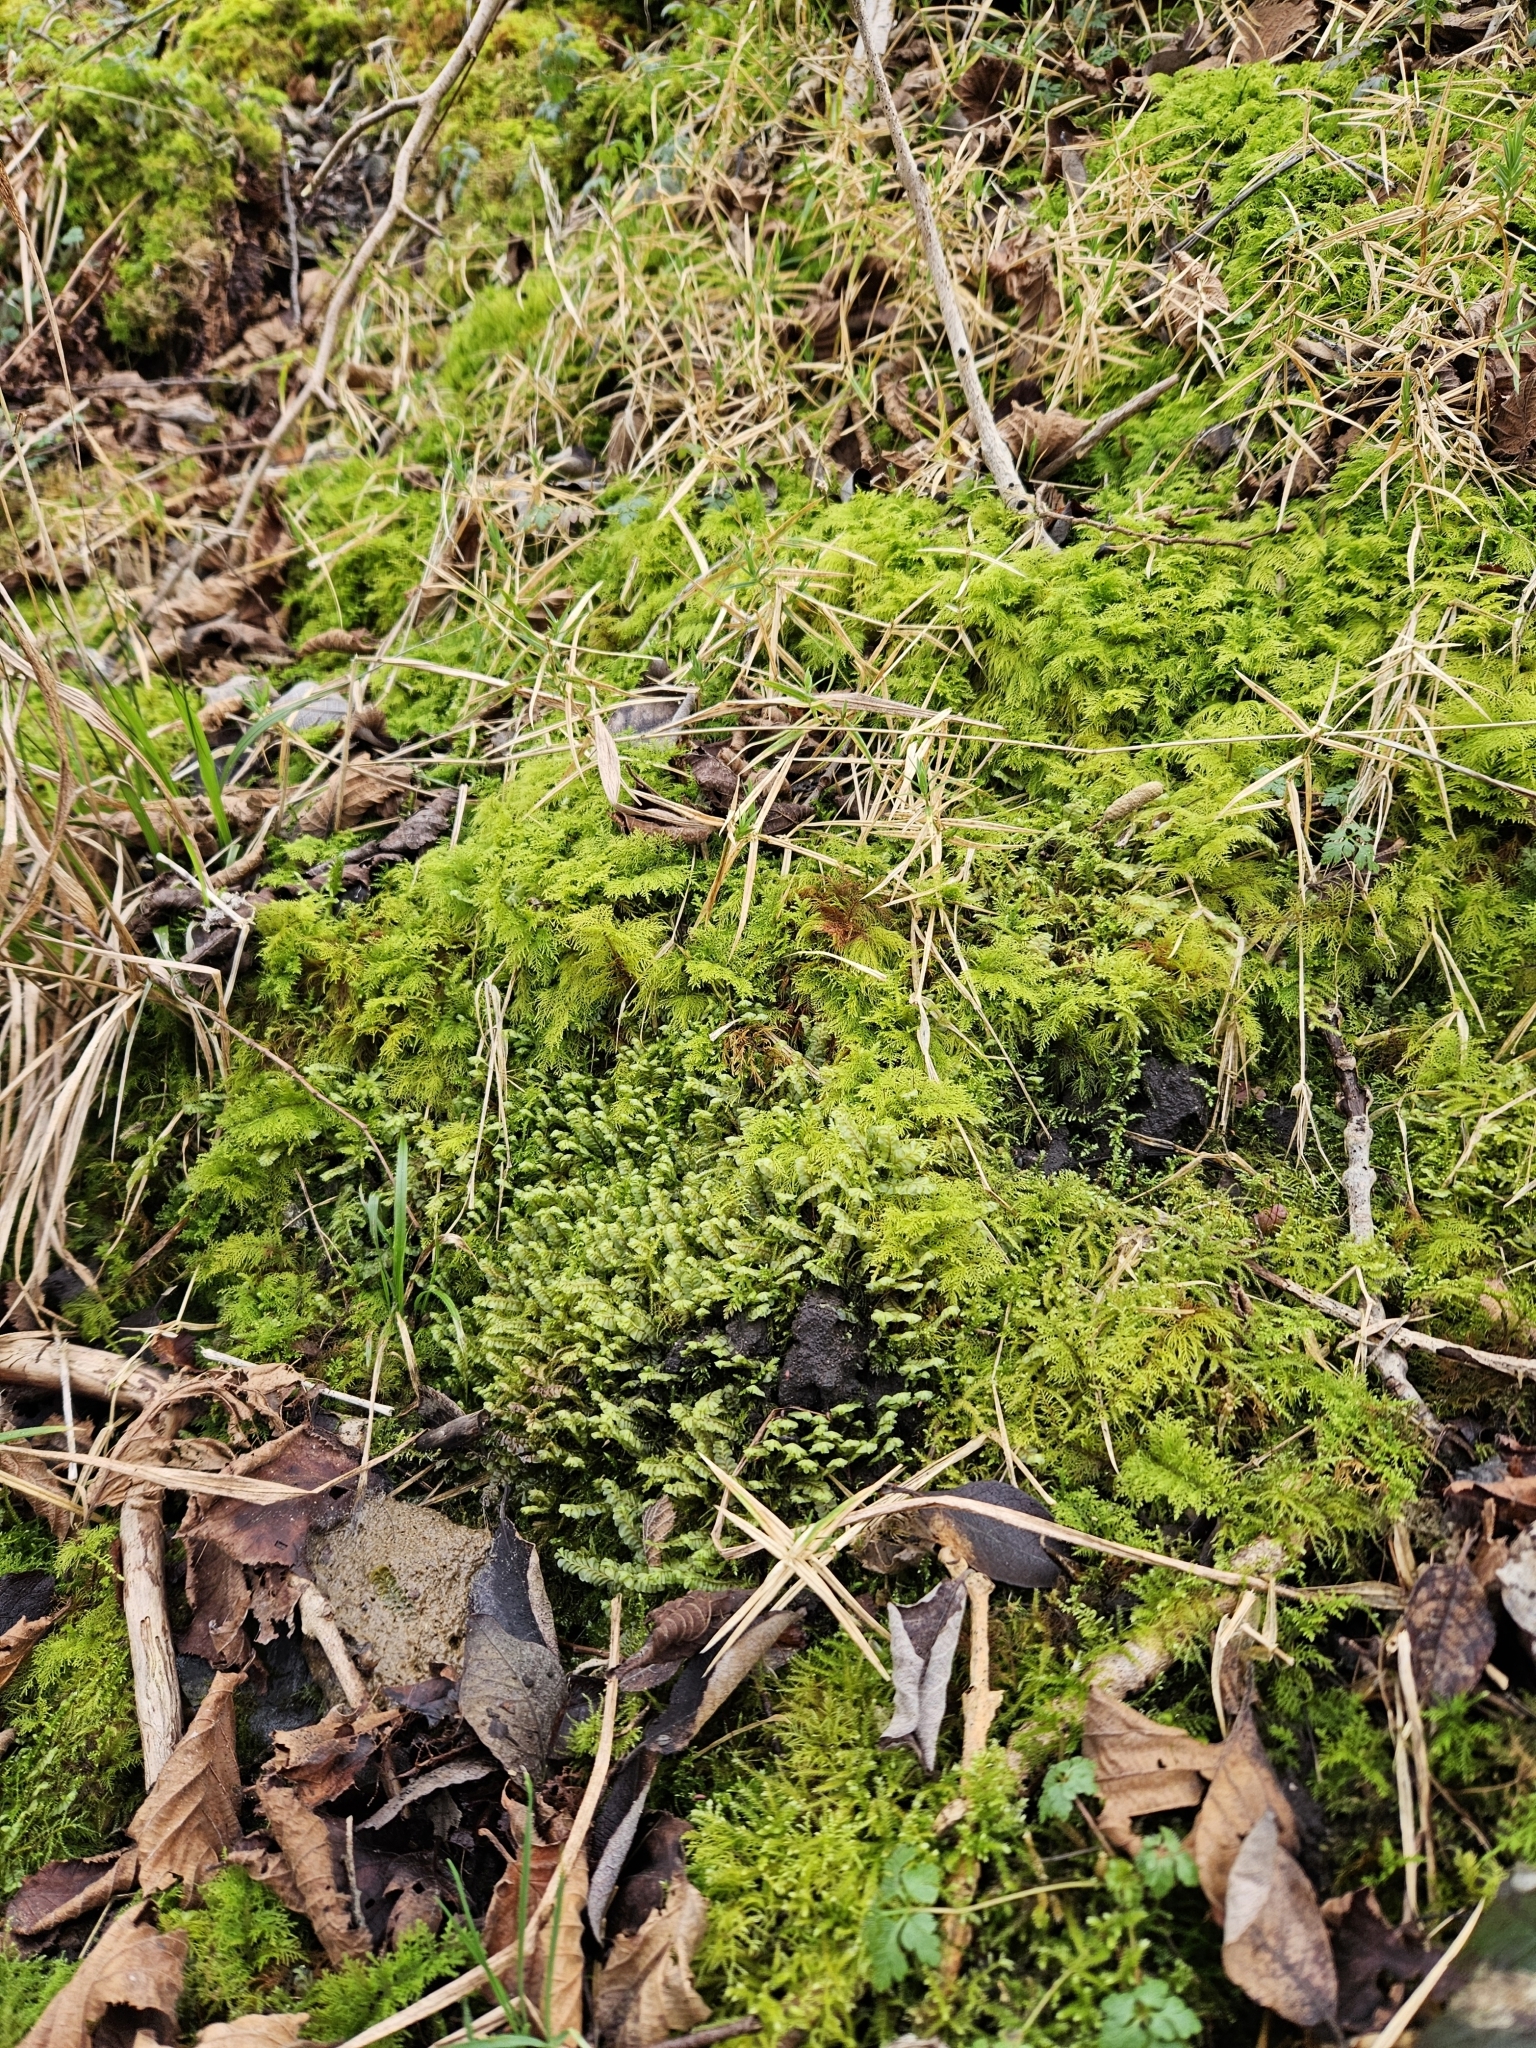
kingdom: Plantae
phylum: Marchantiophyta
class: Jungermanniopsida
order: Jungermanniales
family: Plagiochilaceae
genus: Plagiochila
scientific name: Plagiochila asplenioides
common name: Greater featherwort
